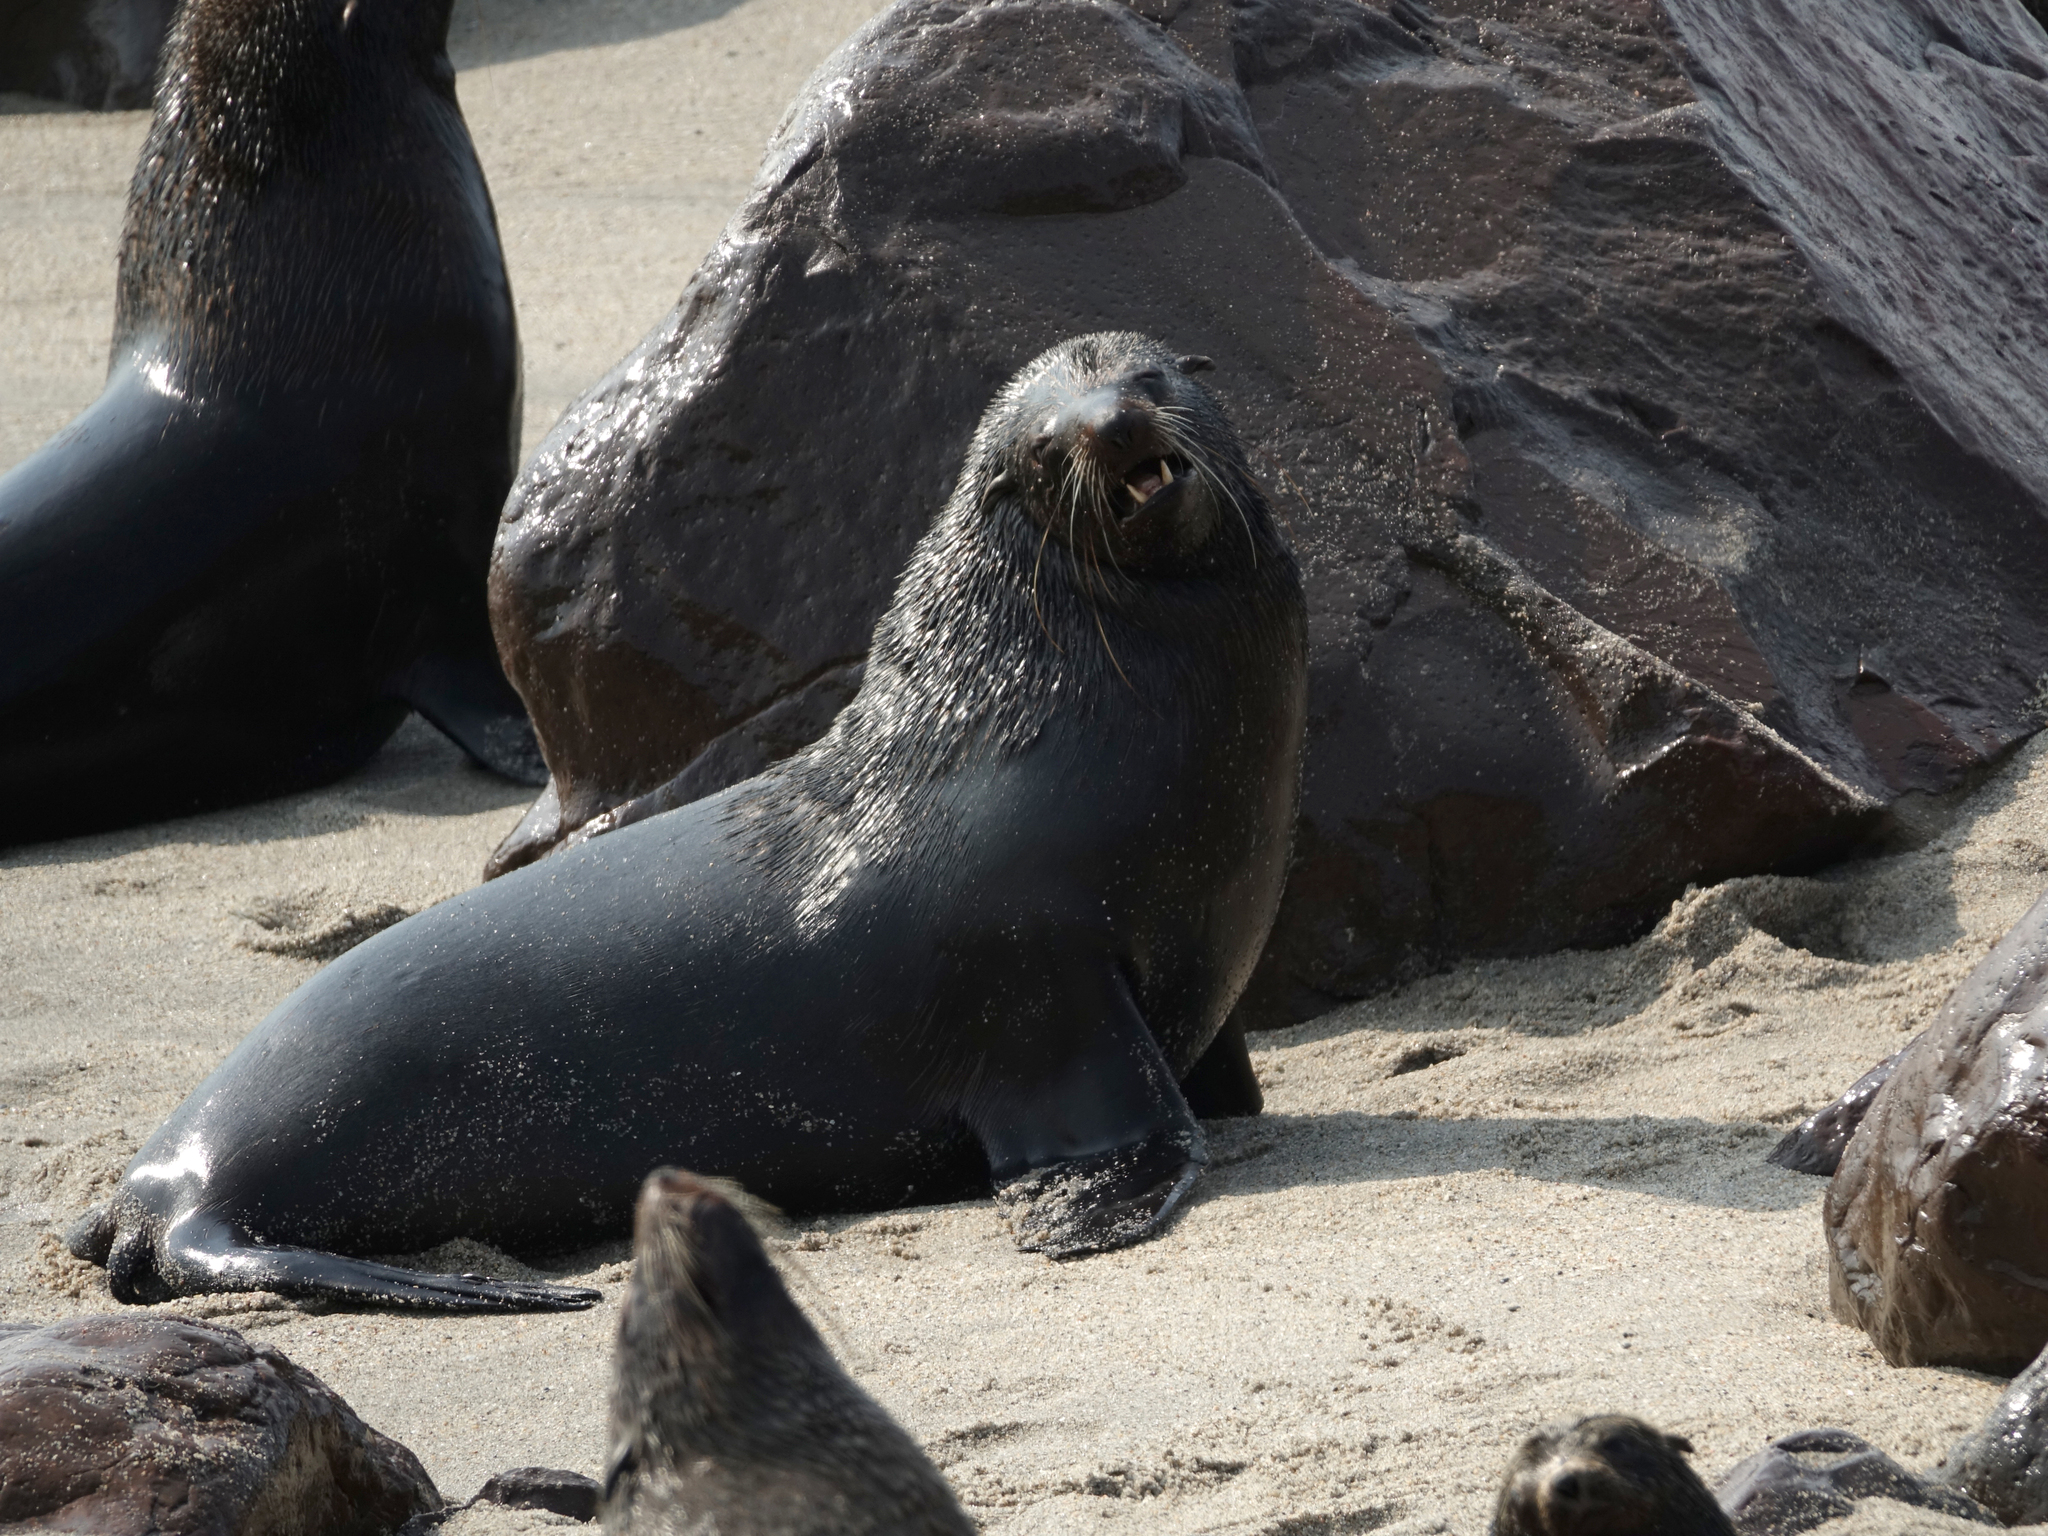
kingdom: Animalia
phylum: Chordata
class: Mammalia
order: Carnivora
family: Otariidae
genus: Arctocephalus
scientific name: Arctocephalus pusillus
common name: Brown fur seal
